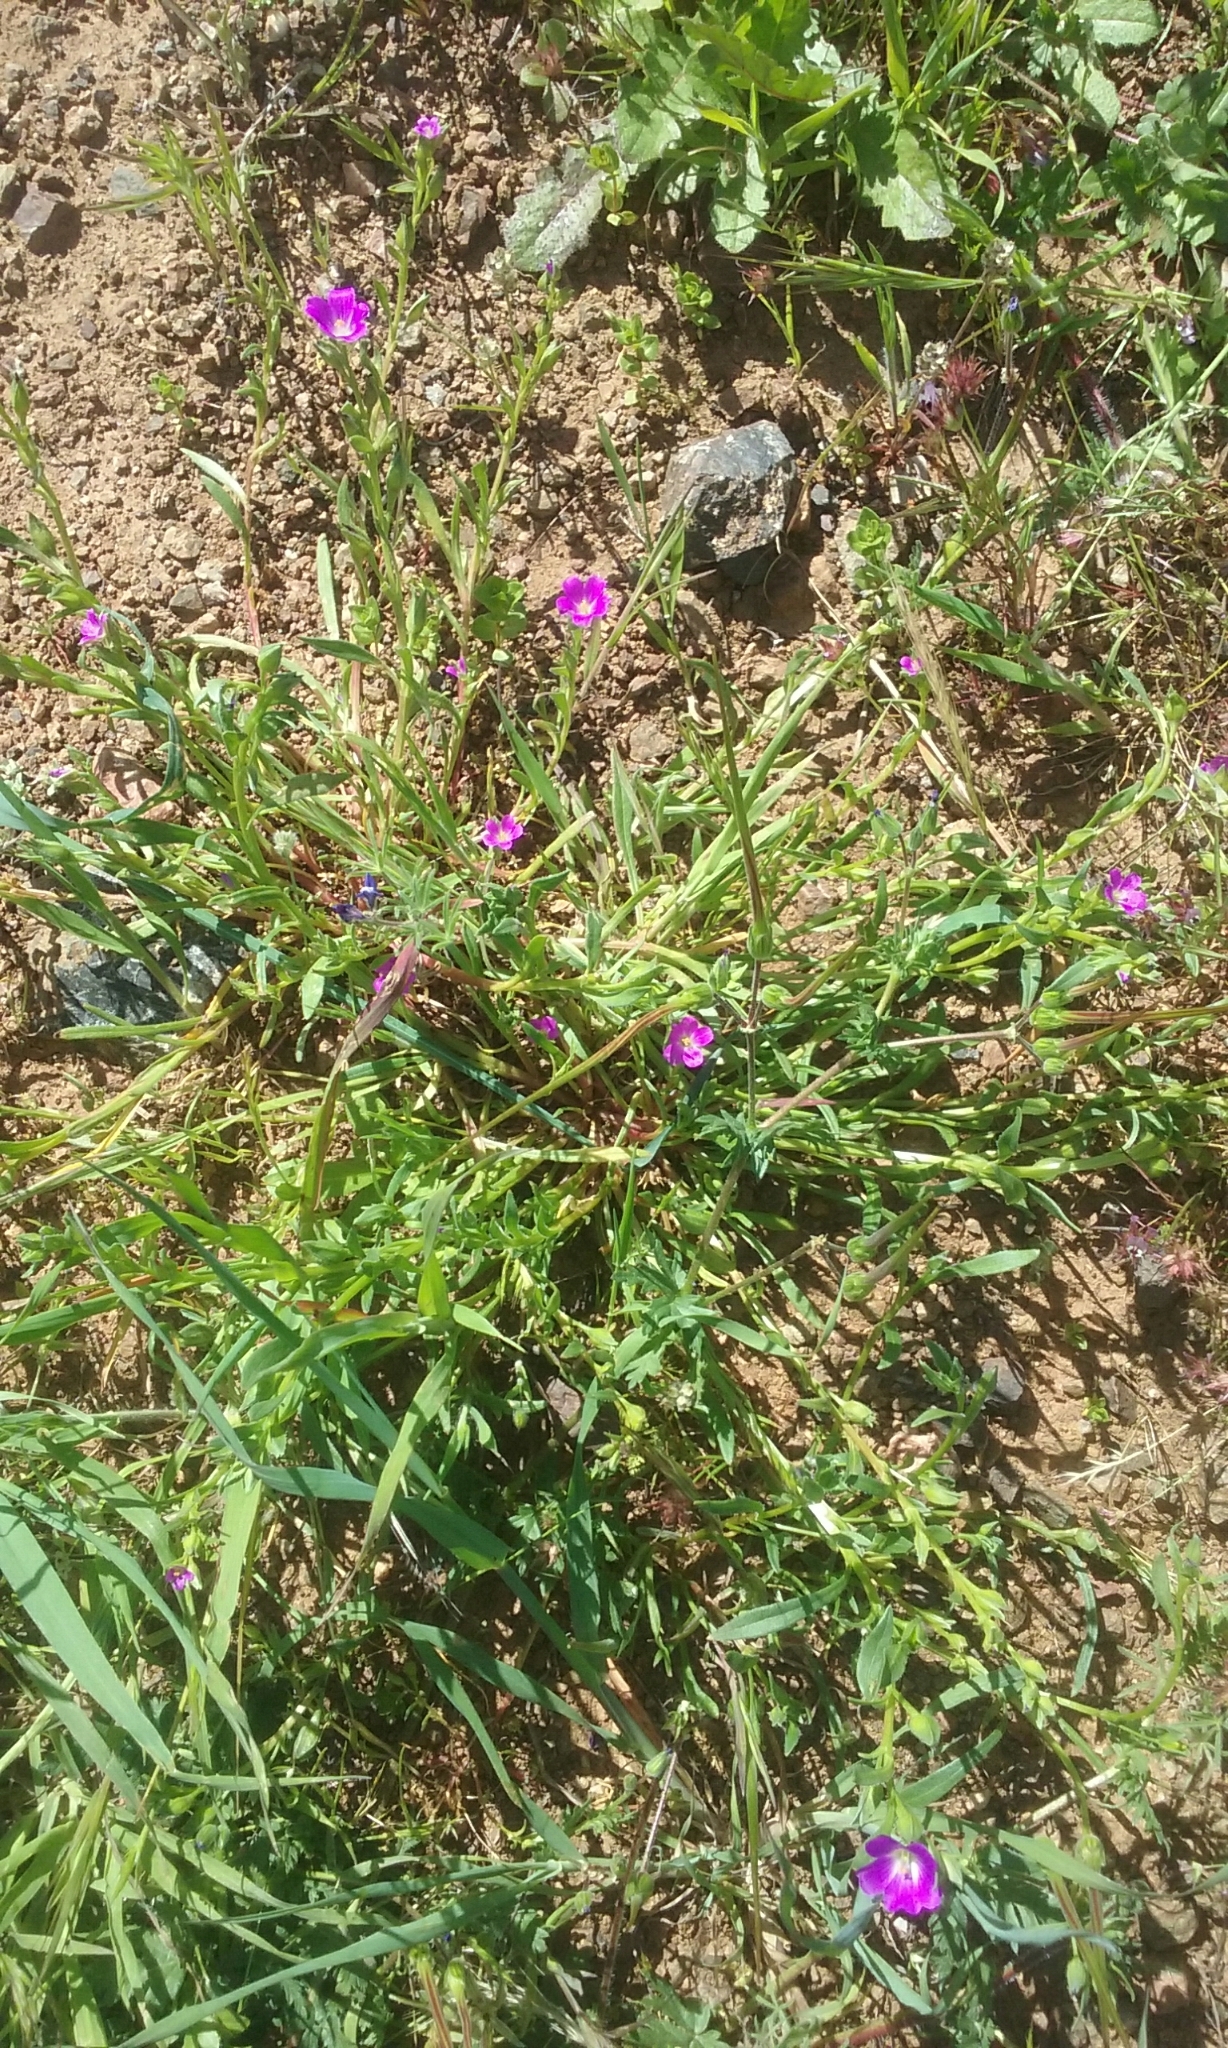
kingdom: Plantae
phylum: Tracheophyta
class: Magnoliopsida
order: Caryophyllales
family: Montiaceae
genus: Calandrinia
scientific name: Calandrinia menziesii
